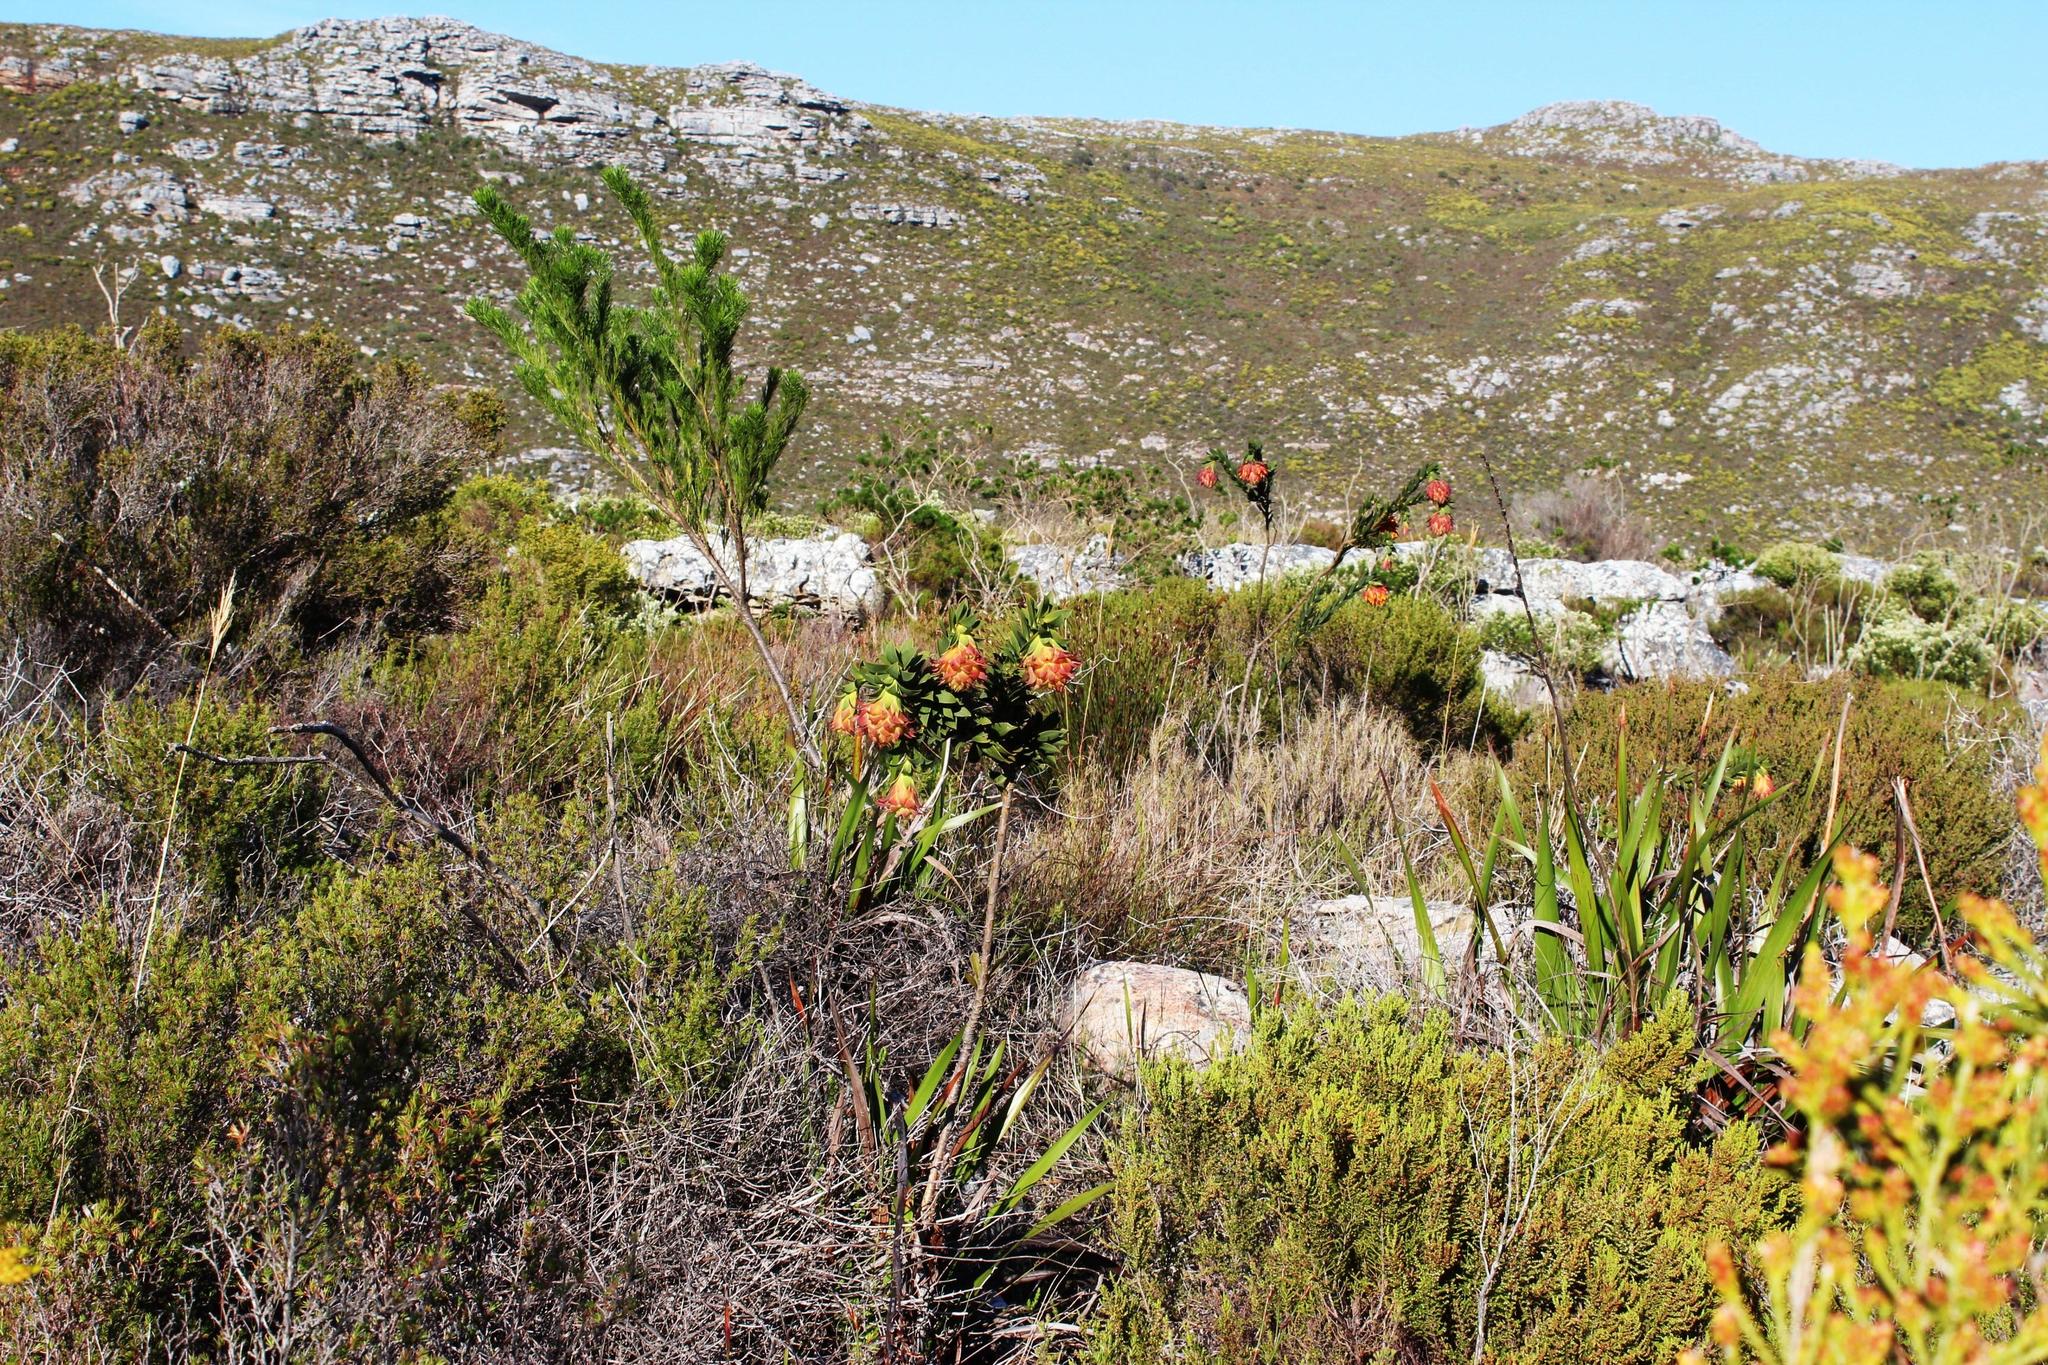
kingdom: Plantae
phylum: Tracheophyta
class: Magnoliopsida
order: Fabales
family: Fabaceae
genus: Liparia
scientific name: Liparia splendens
